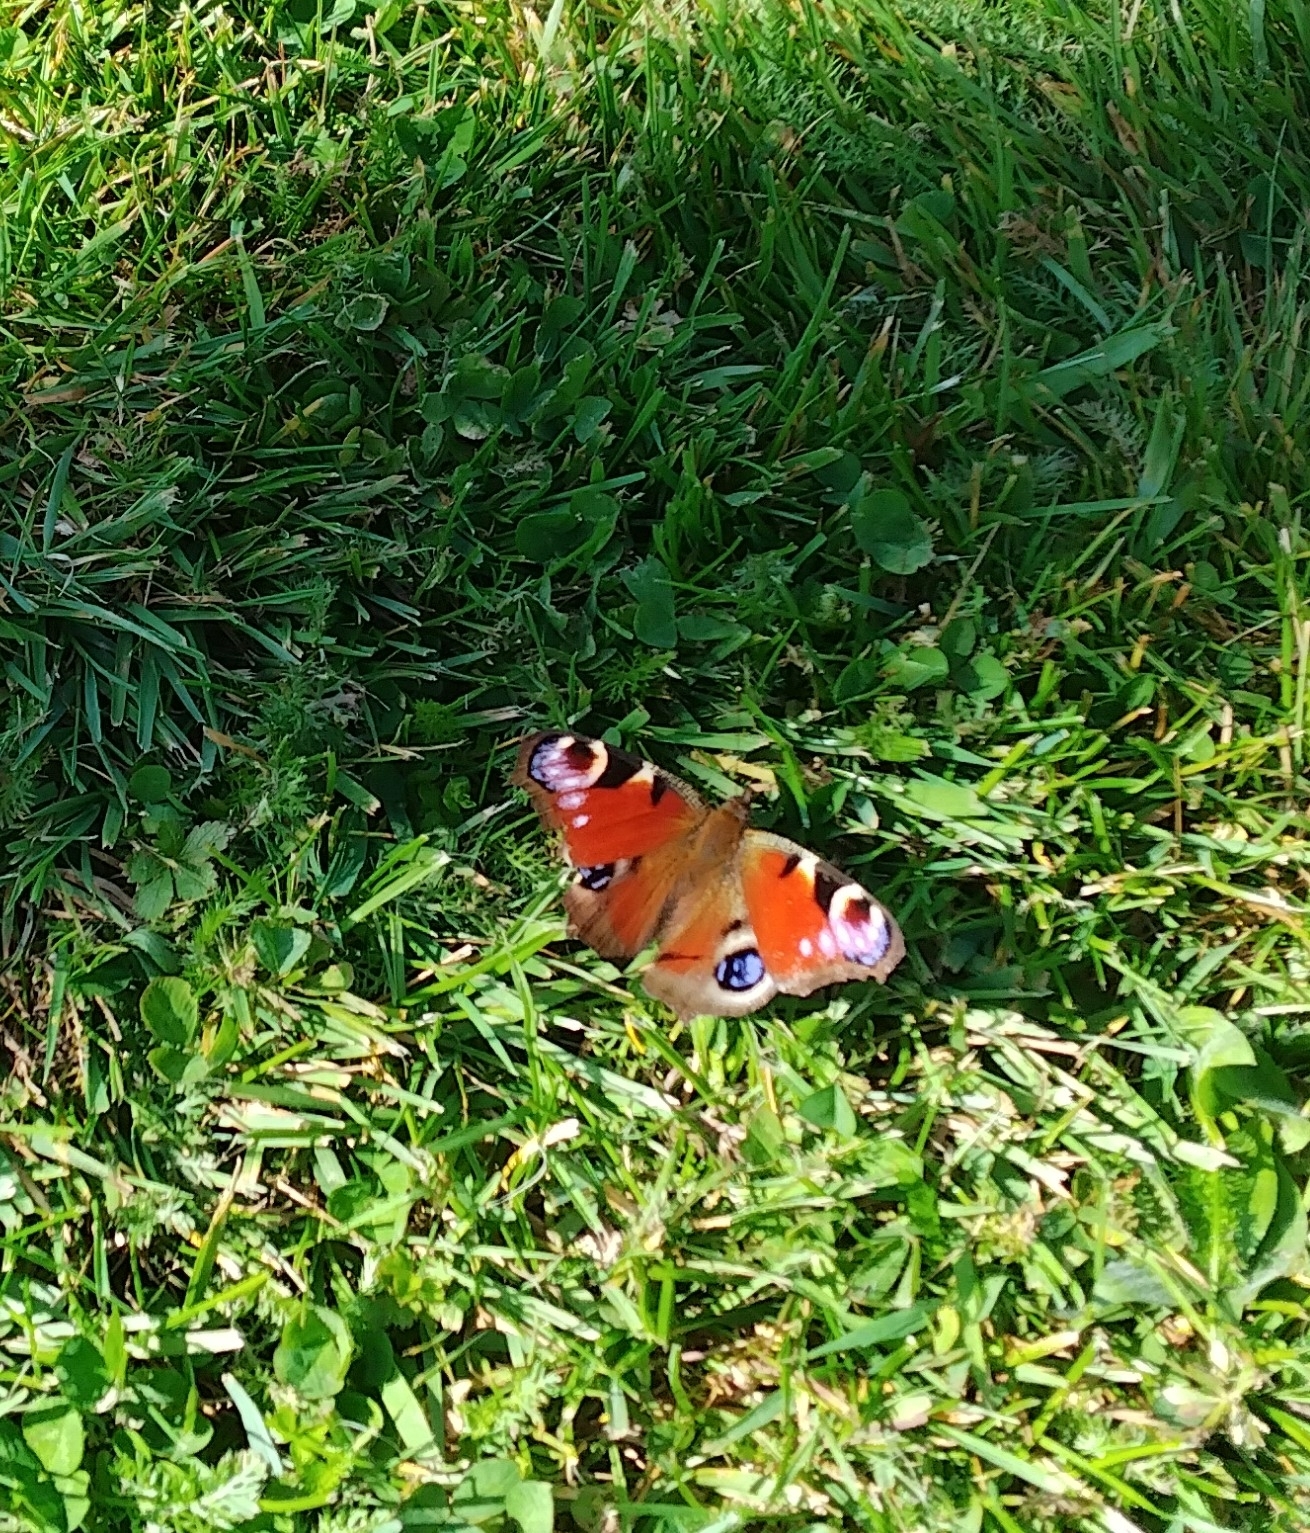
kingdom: Animalia
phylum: Arthropoda
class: Insecta
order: Lepidoptera
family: Nymphalidae
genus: Aglais
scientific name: Aglais io
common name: Peacock
